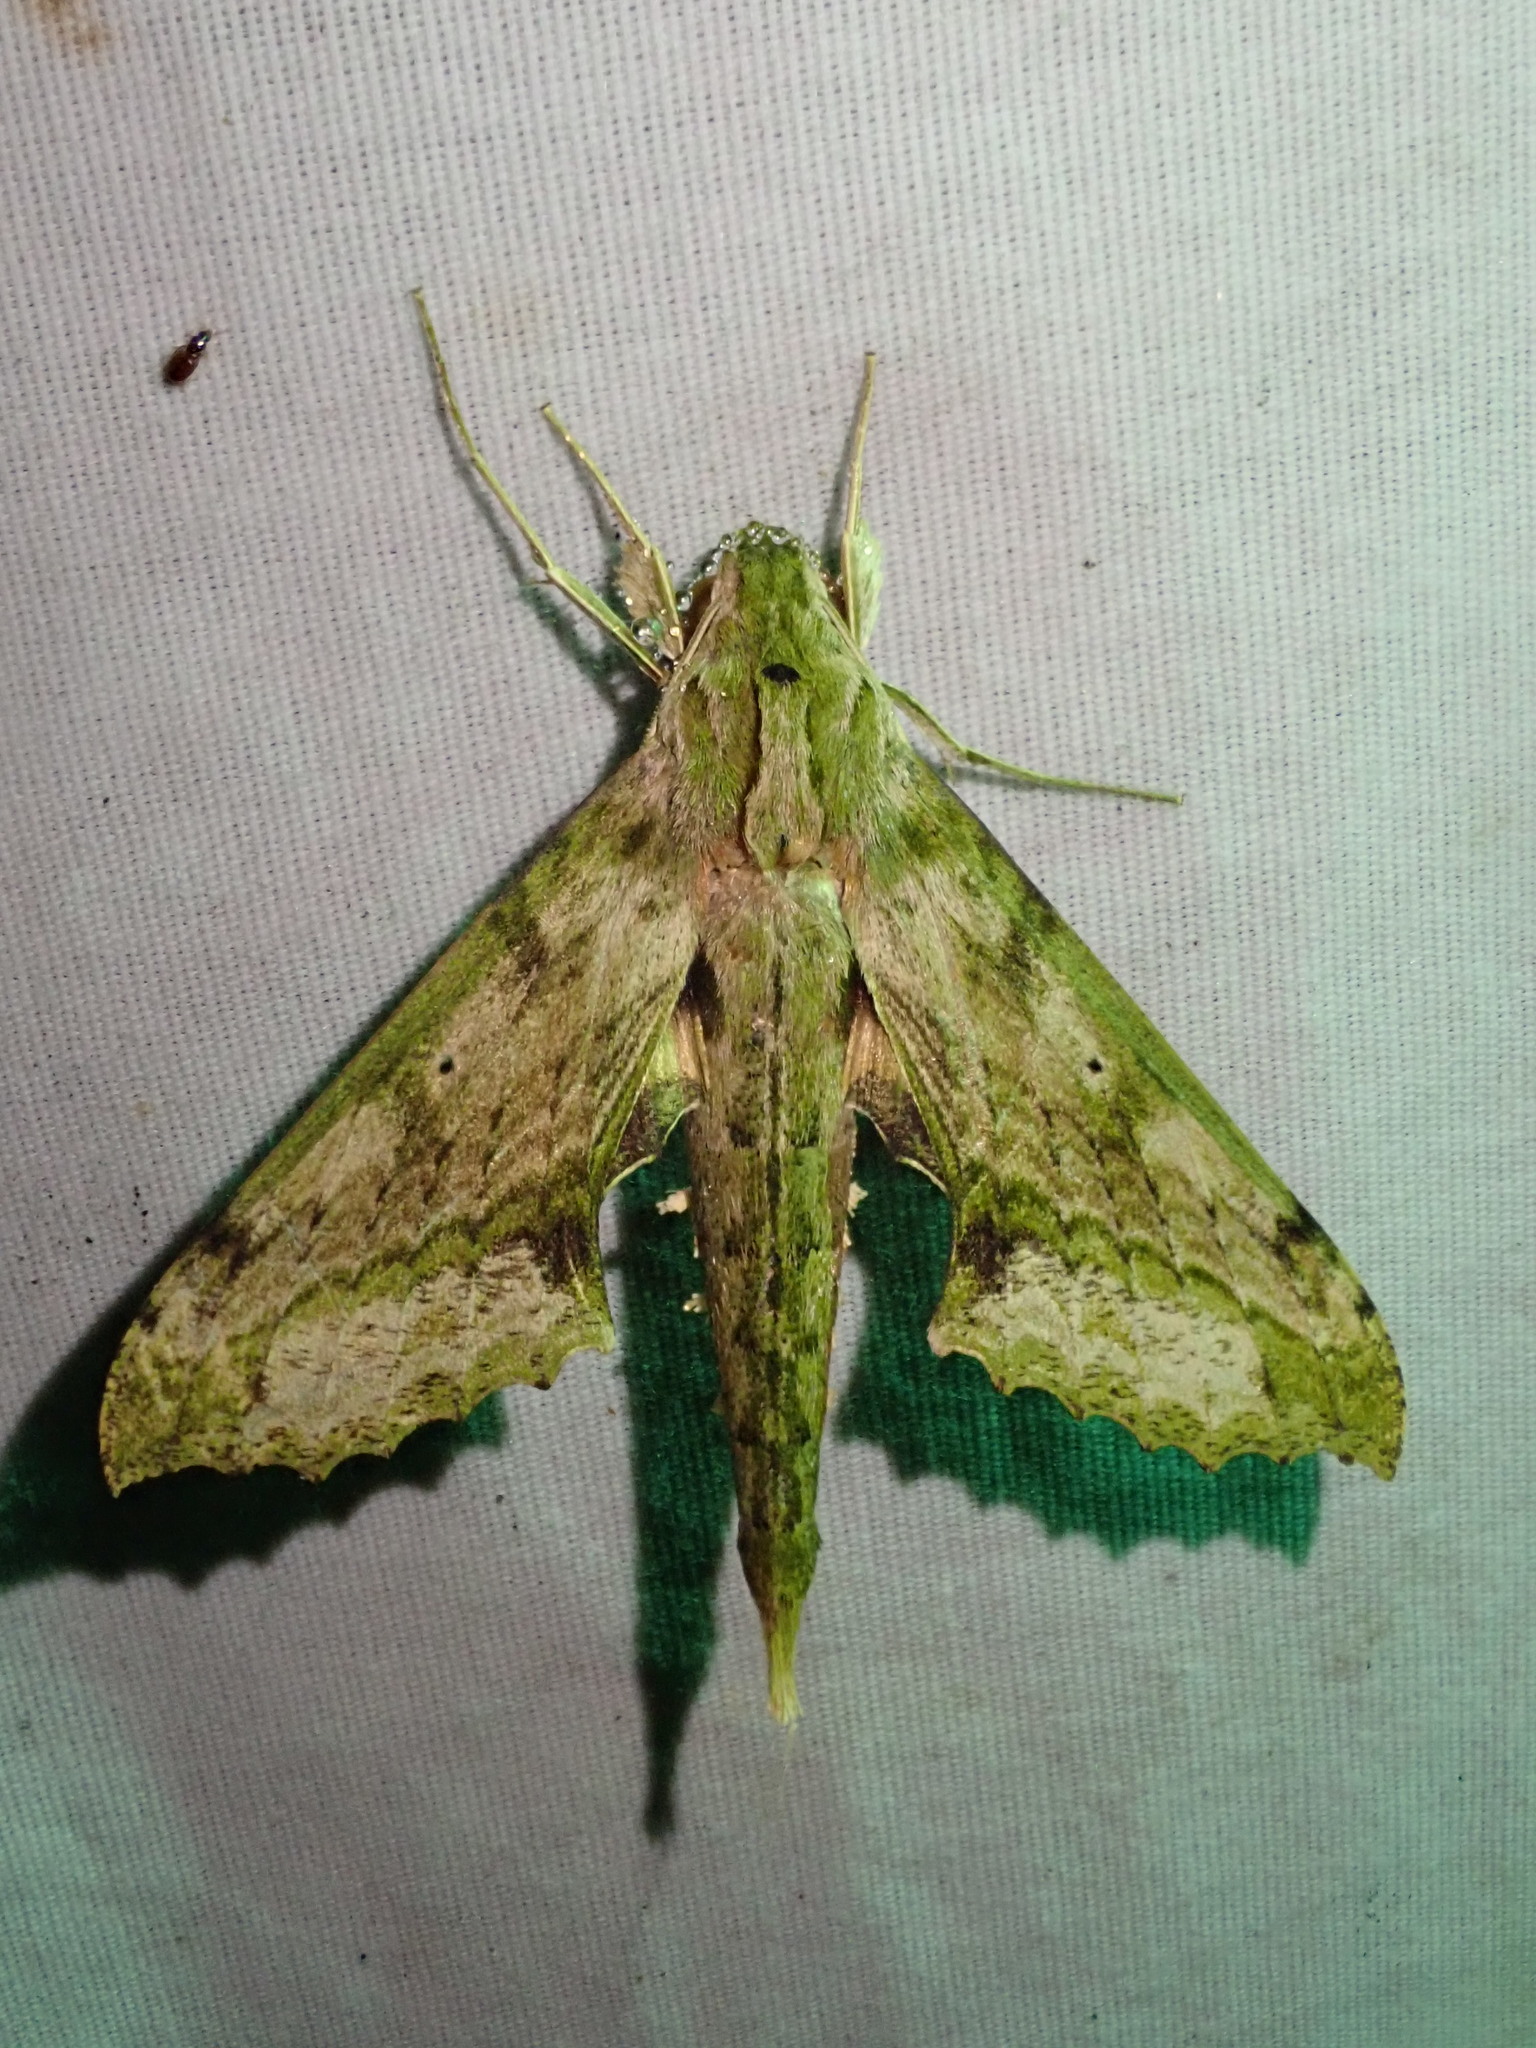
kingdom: Animalia
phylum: Arthropoda
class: Insecta
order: Lepidoptera
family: Sphingidae
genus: Xylophanes
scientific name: Xylophanes undata
